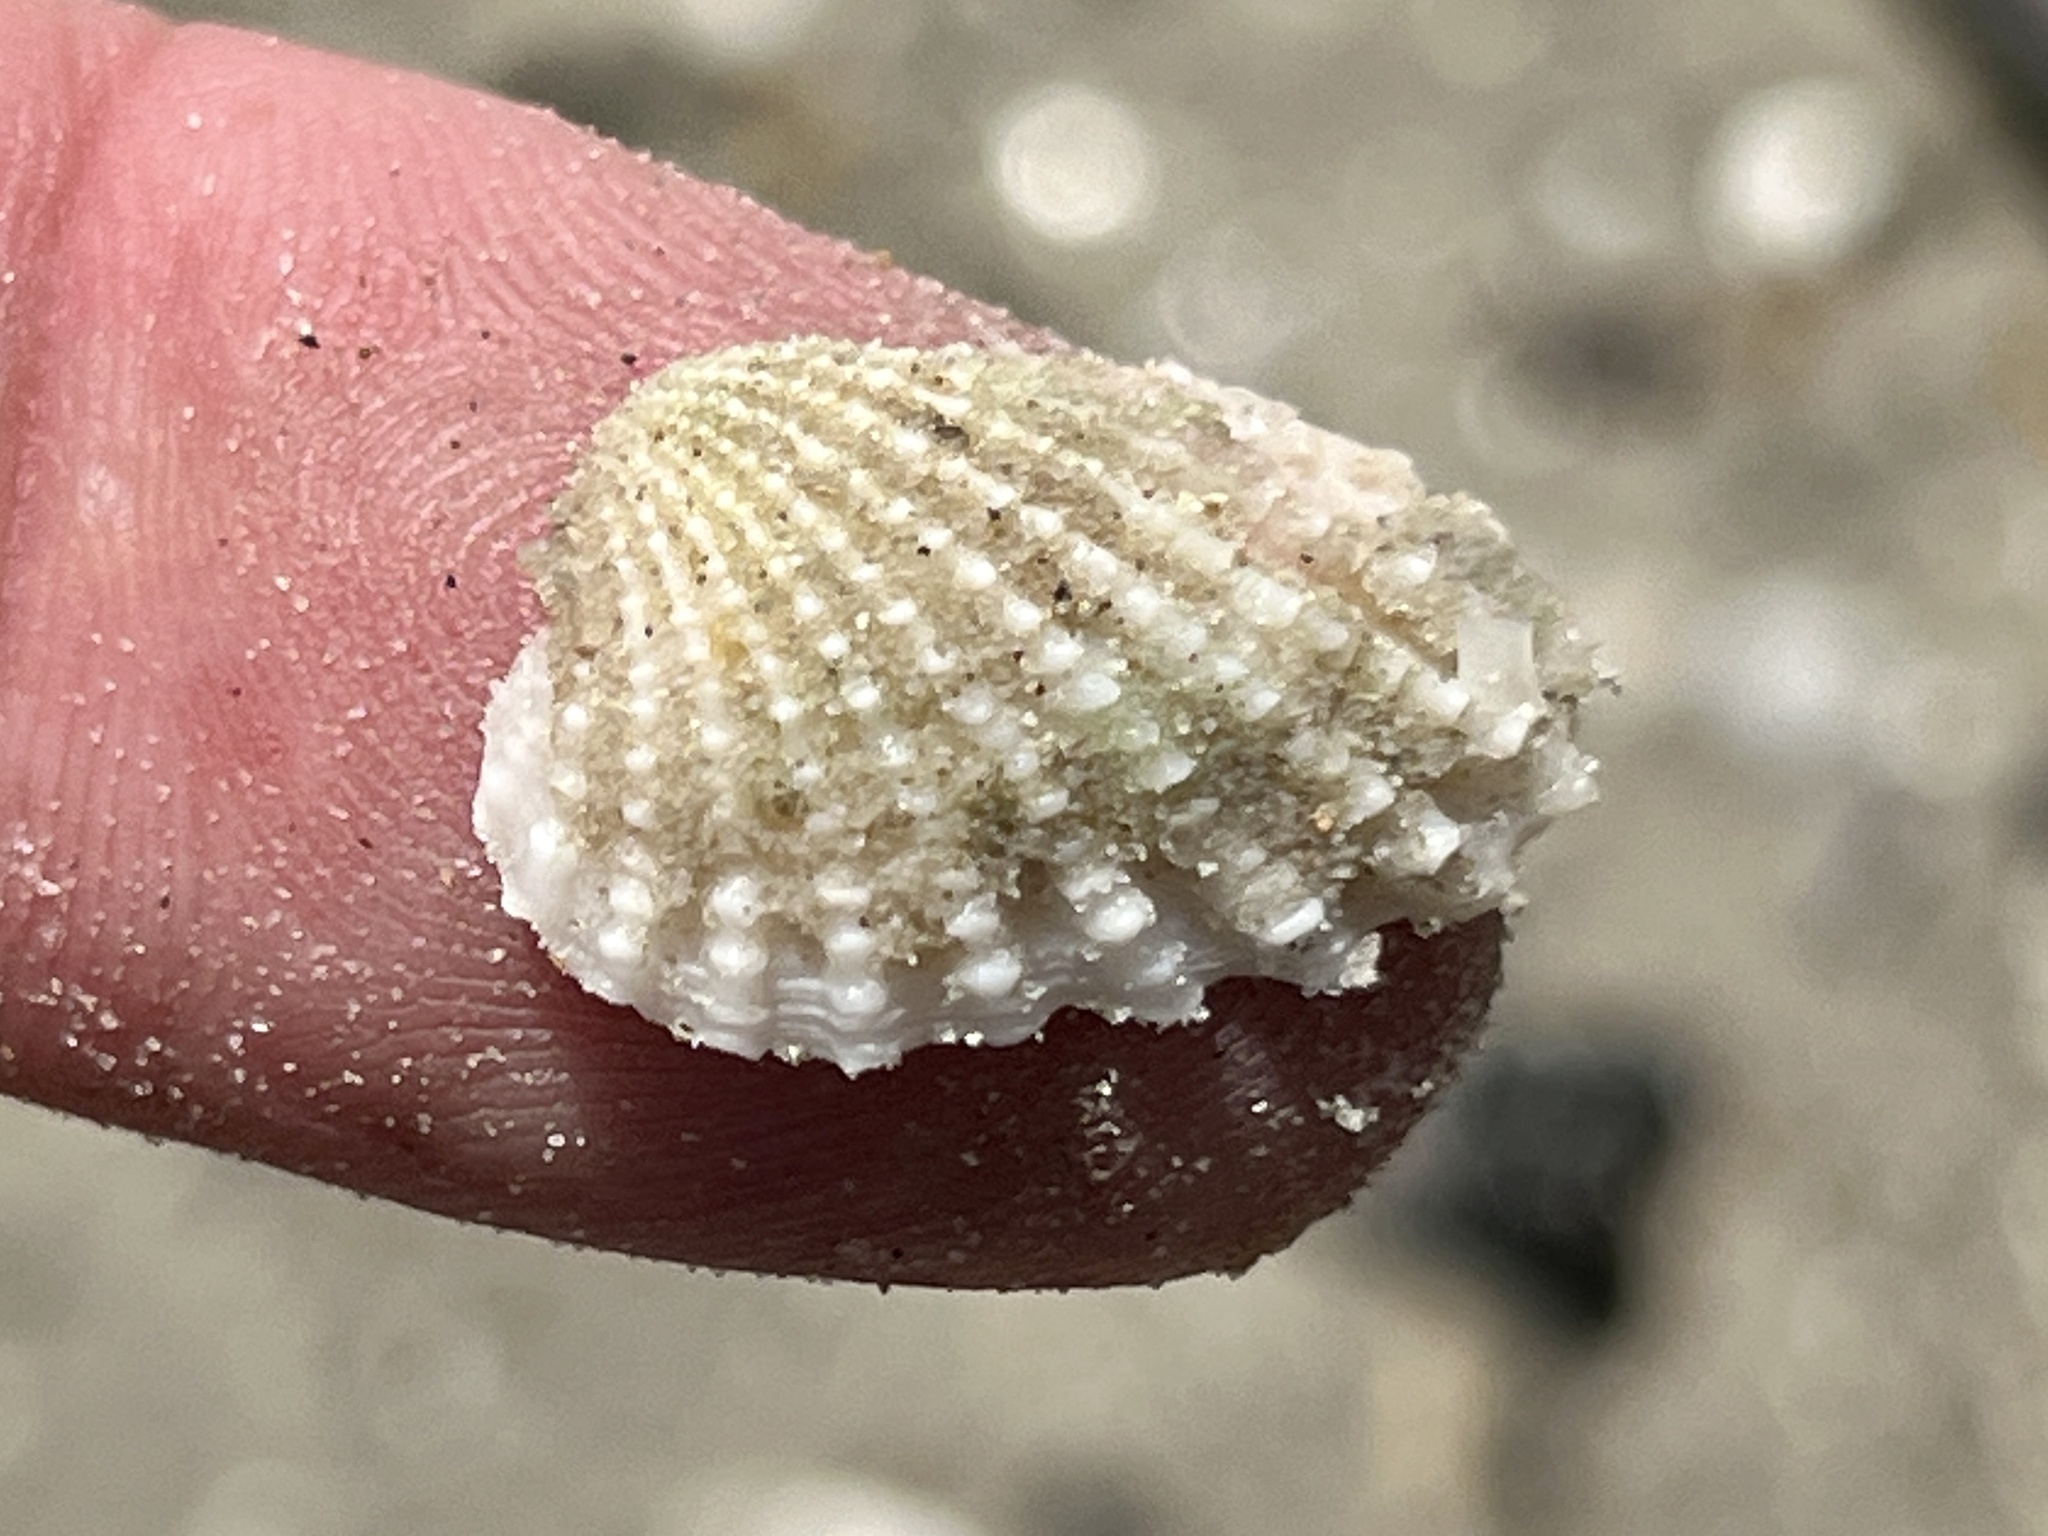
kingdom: Animalia
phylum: Mollusca
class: Bivalvia
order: Carditida
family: Carditidae
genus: Cardites
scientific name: Cardites floridanus
